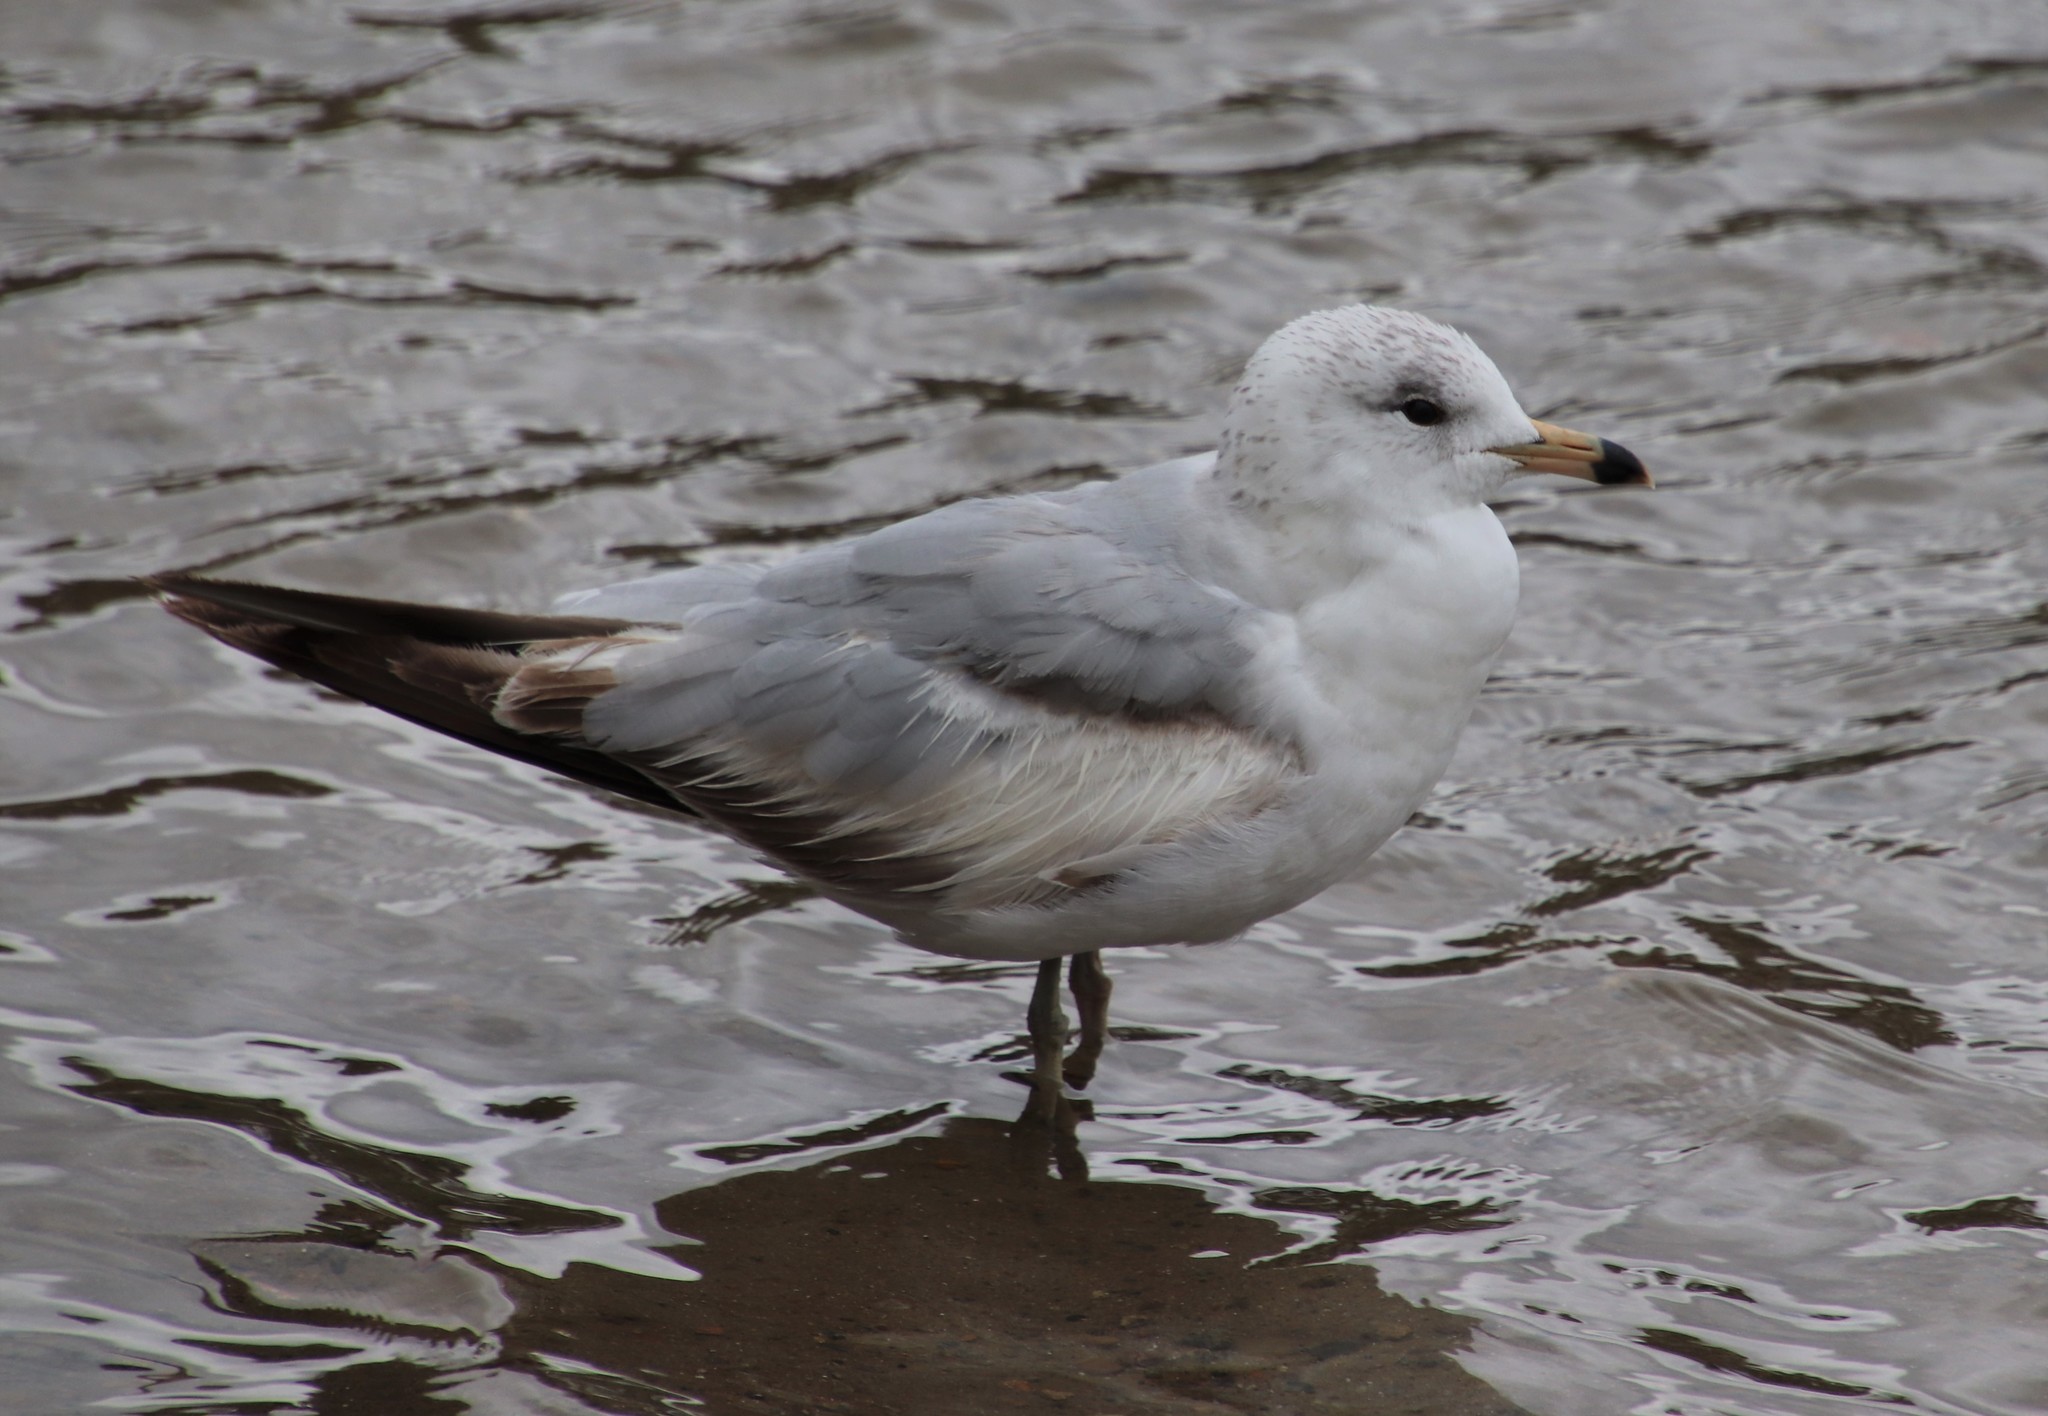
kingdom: Animalia
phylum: Chordata
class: Aves
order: Charadriiformes
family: Laridae
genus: Larus
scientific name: Larus delawarensis
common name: Ring-billed gull
